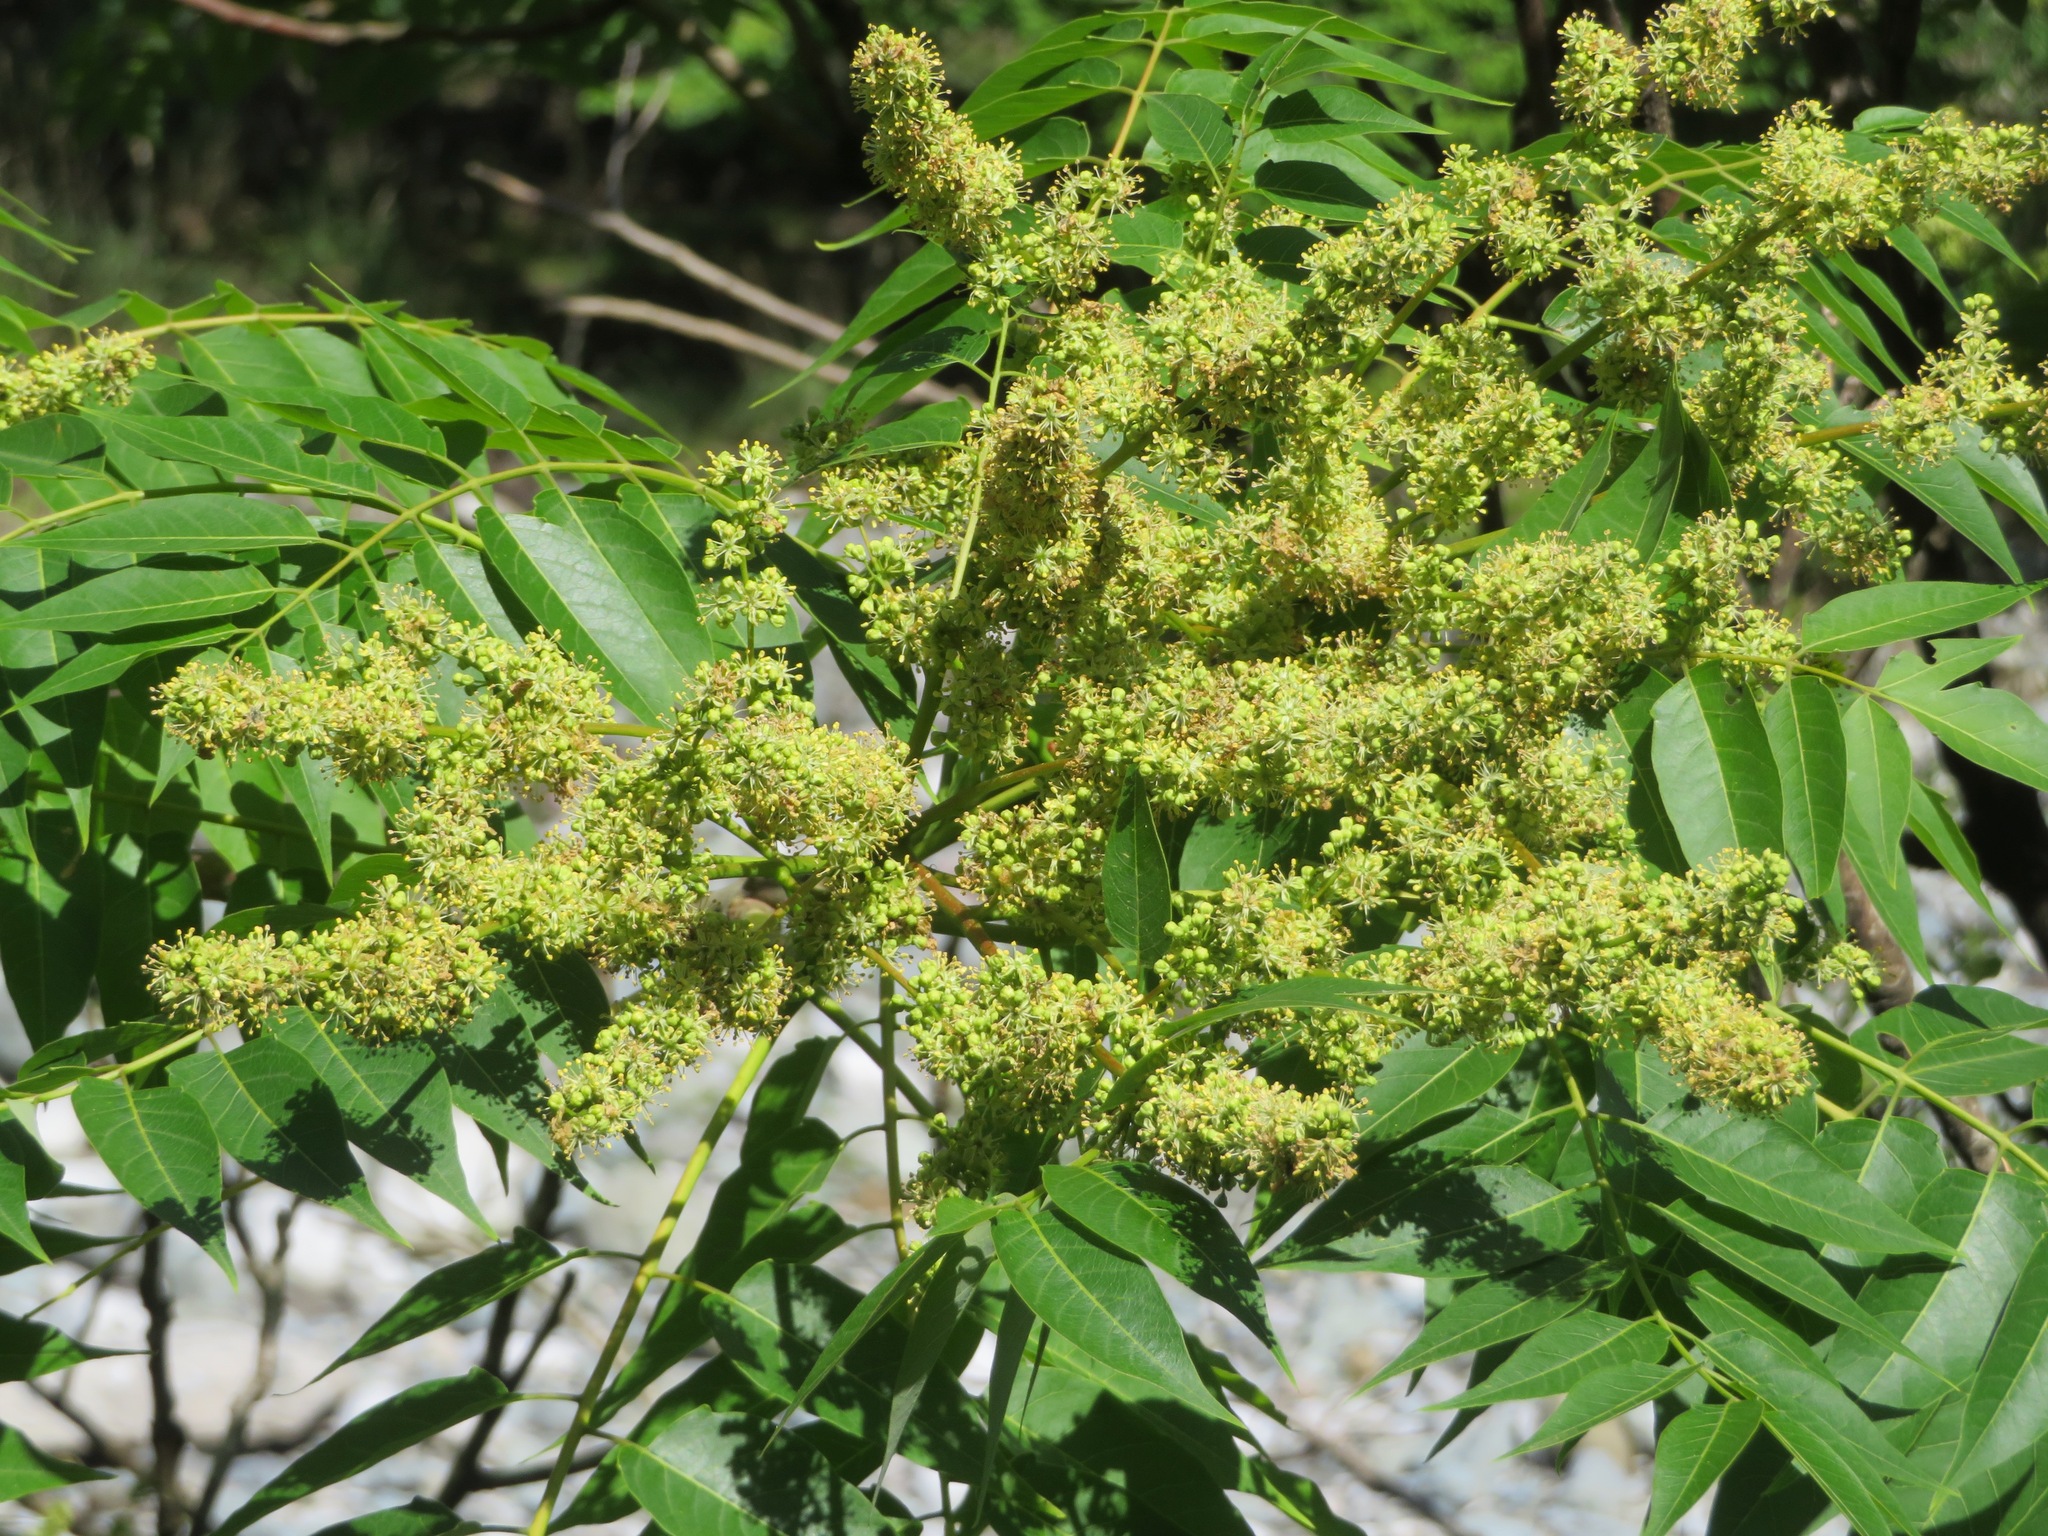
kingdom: Plantae
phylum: Tracheophyta
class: Magnoliopsida
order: Sapindales
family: Anacardiaceae
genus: Toxicodendron
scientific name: Toxicodendron succedaneum
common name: Wax tree
